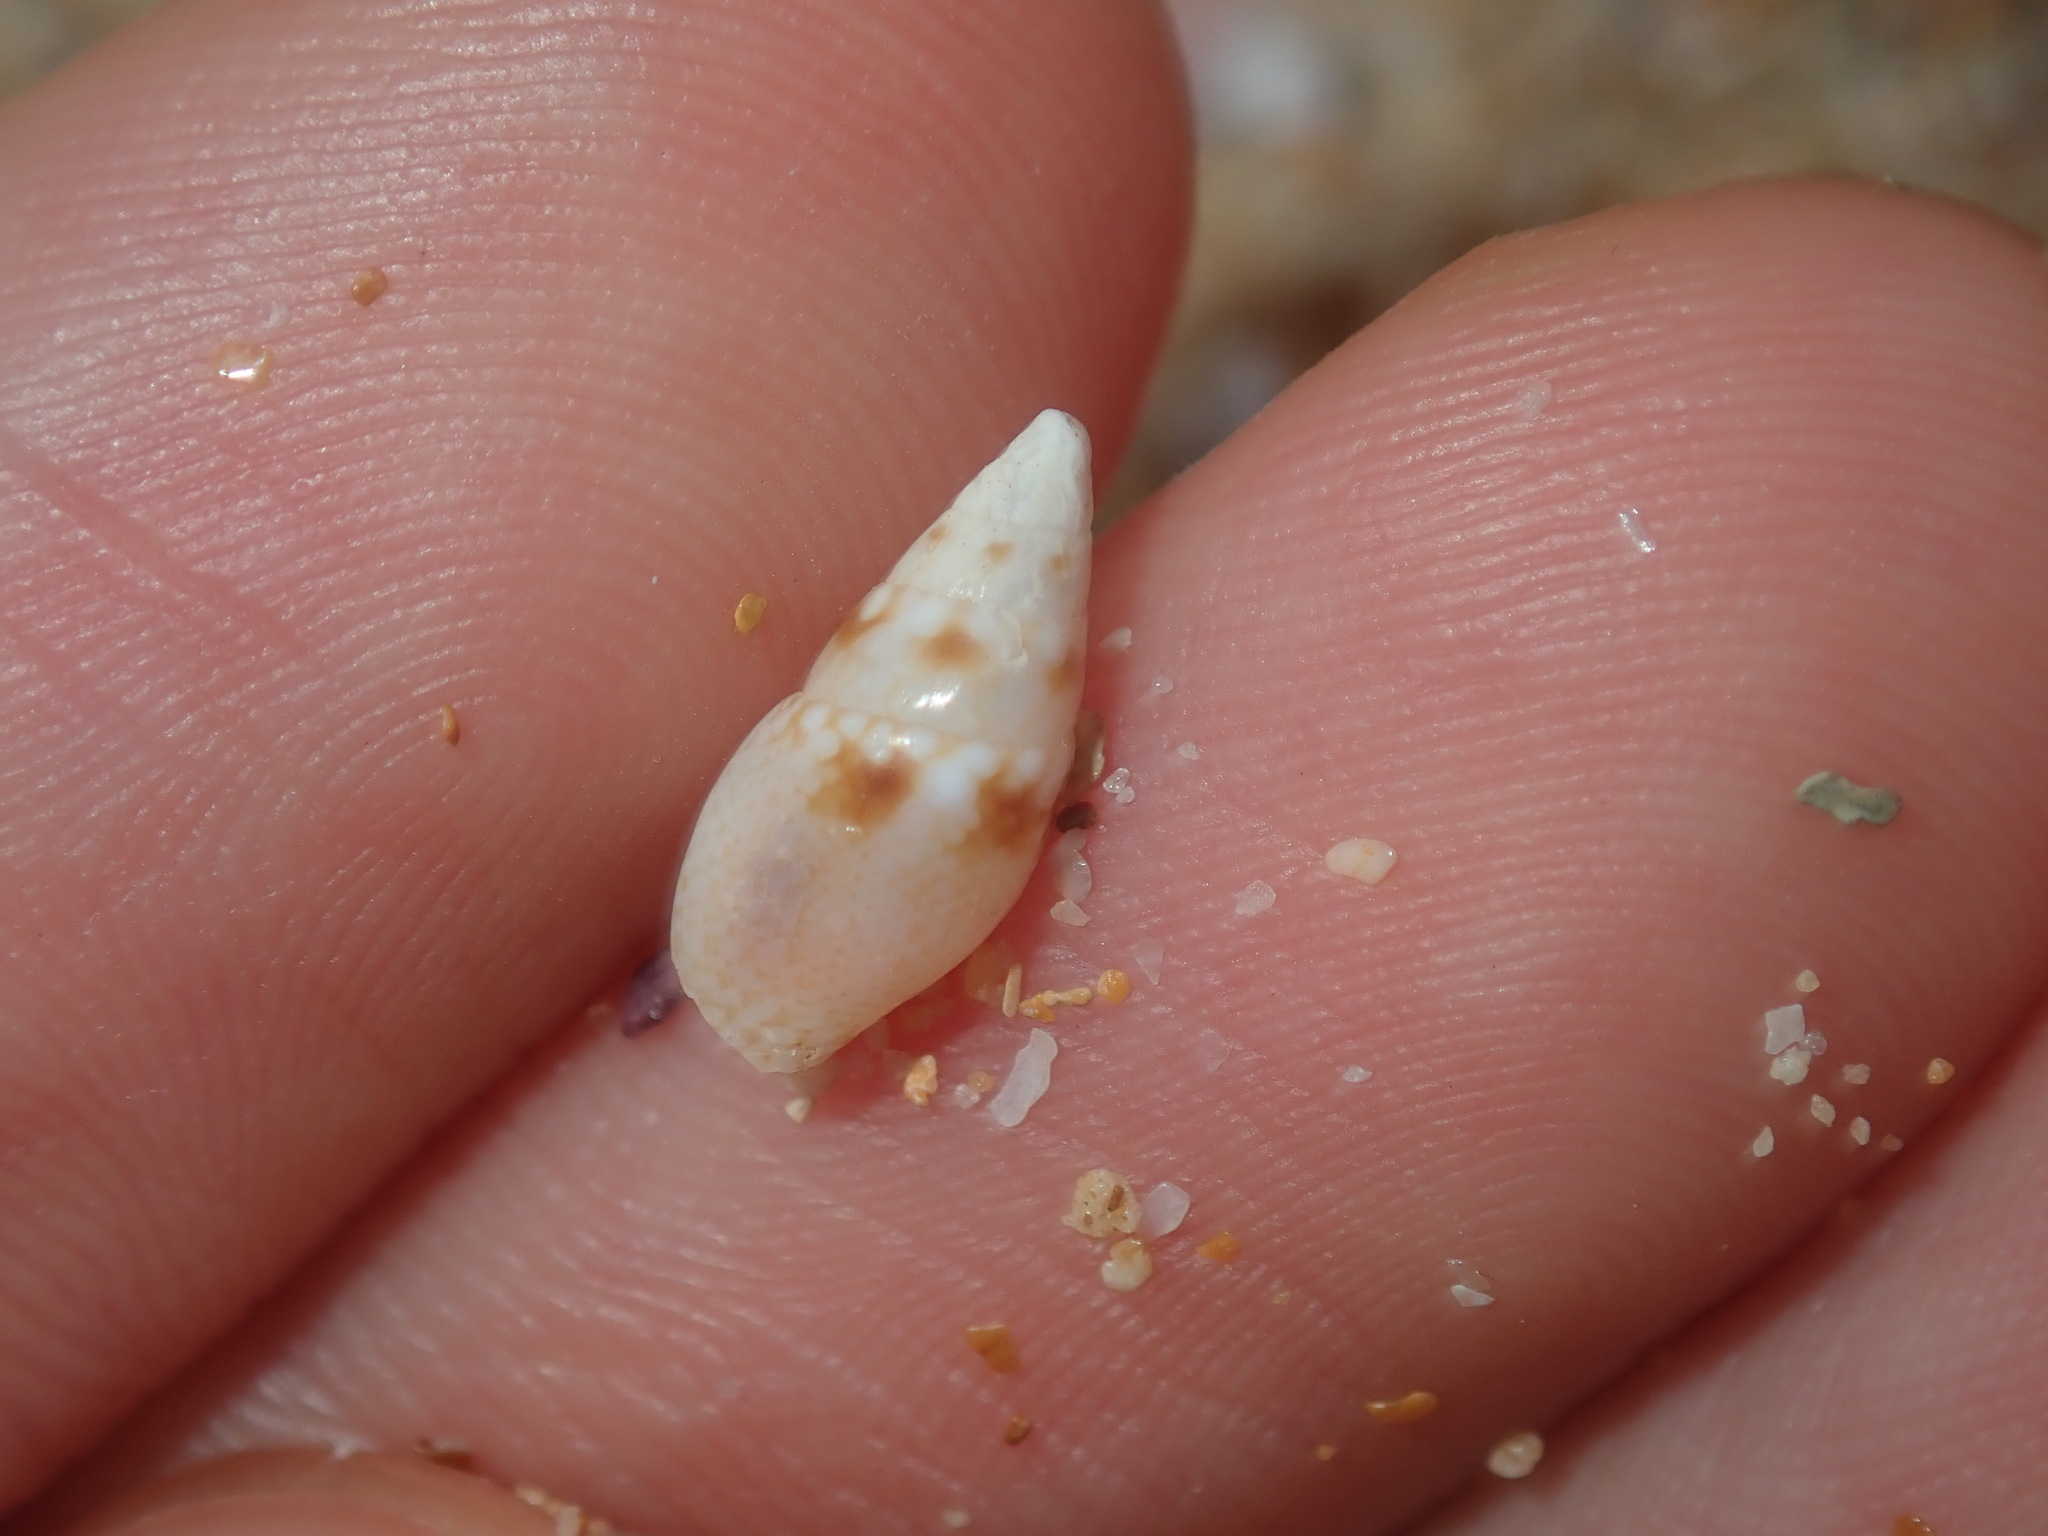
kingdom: Animalia
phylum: Mollusca
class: Gastropoda
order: Neogastropoda
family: Columbellidae
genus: Mitrella
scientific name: Mitrella tayloriana
